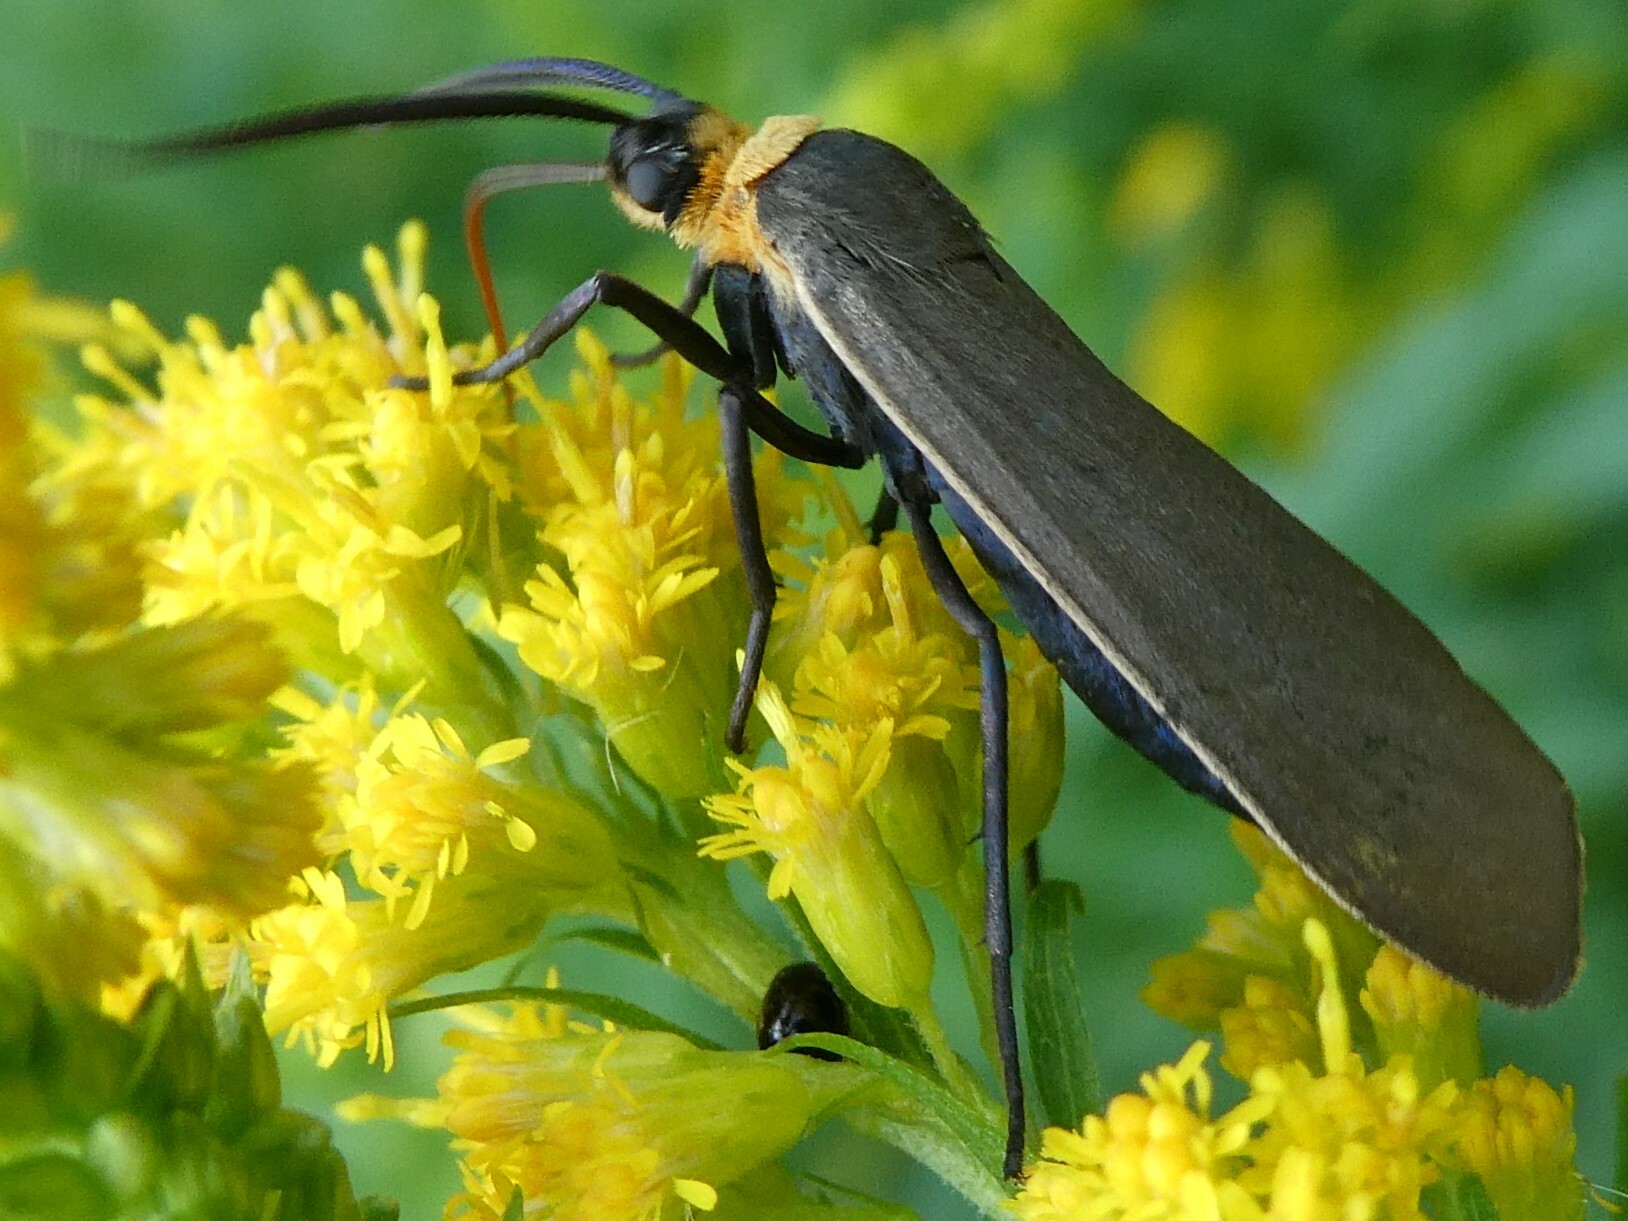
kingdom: Animalia
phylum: Arthropoda
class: Insecta
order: Lepidoptera
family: Erebidae
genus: Cisseps
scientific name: Cisseps fulvicollis
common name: Yellow-collared scape moth
